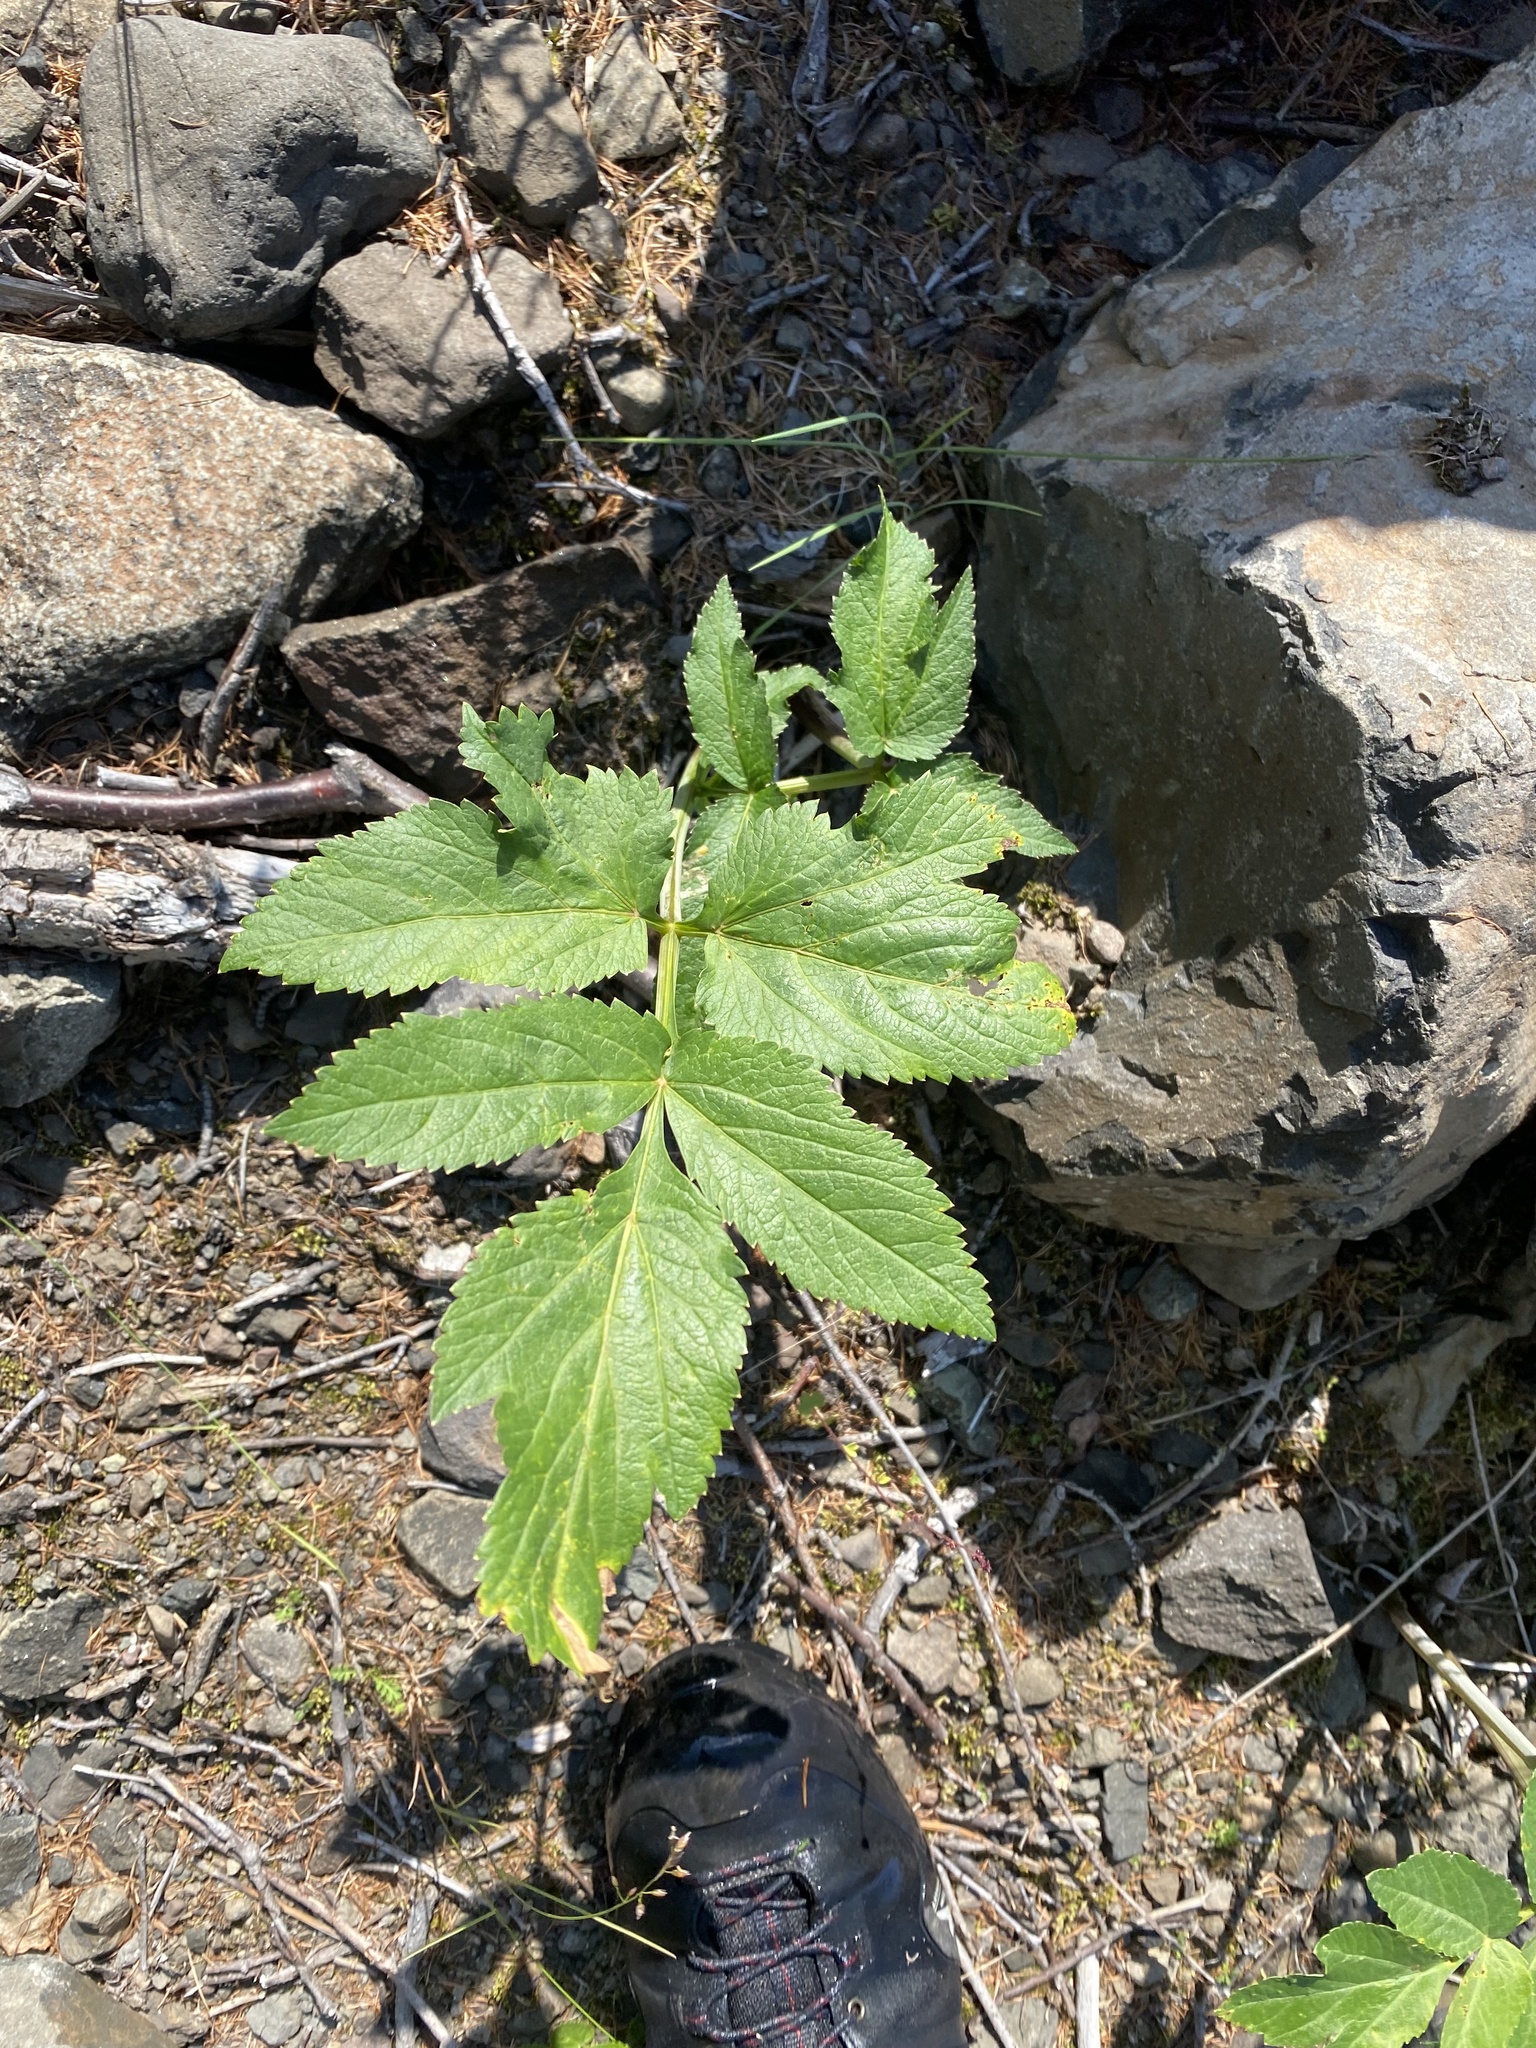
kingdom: Plantae
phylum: Tracheophyta
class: Magnoliopsida
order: Apiales
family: Apiaceae
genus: Angelica
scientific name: Angelica decurrens
